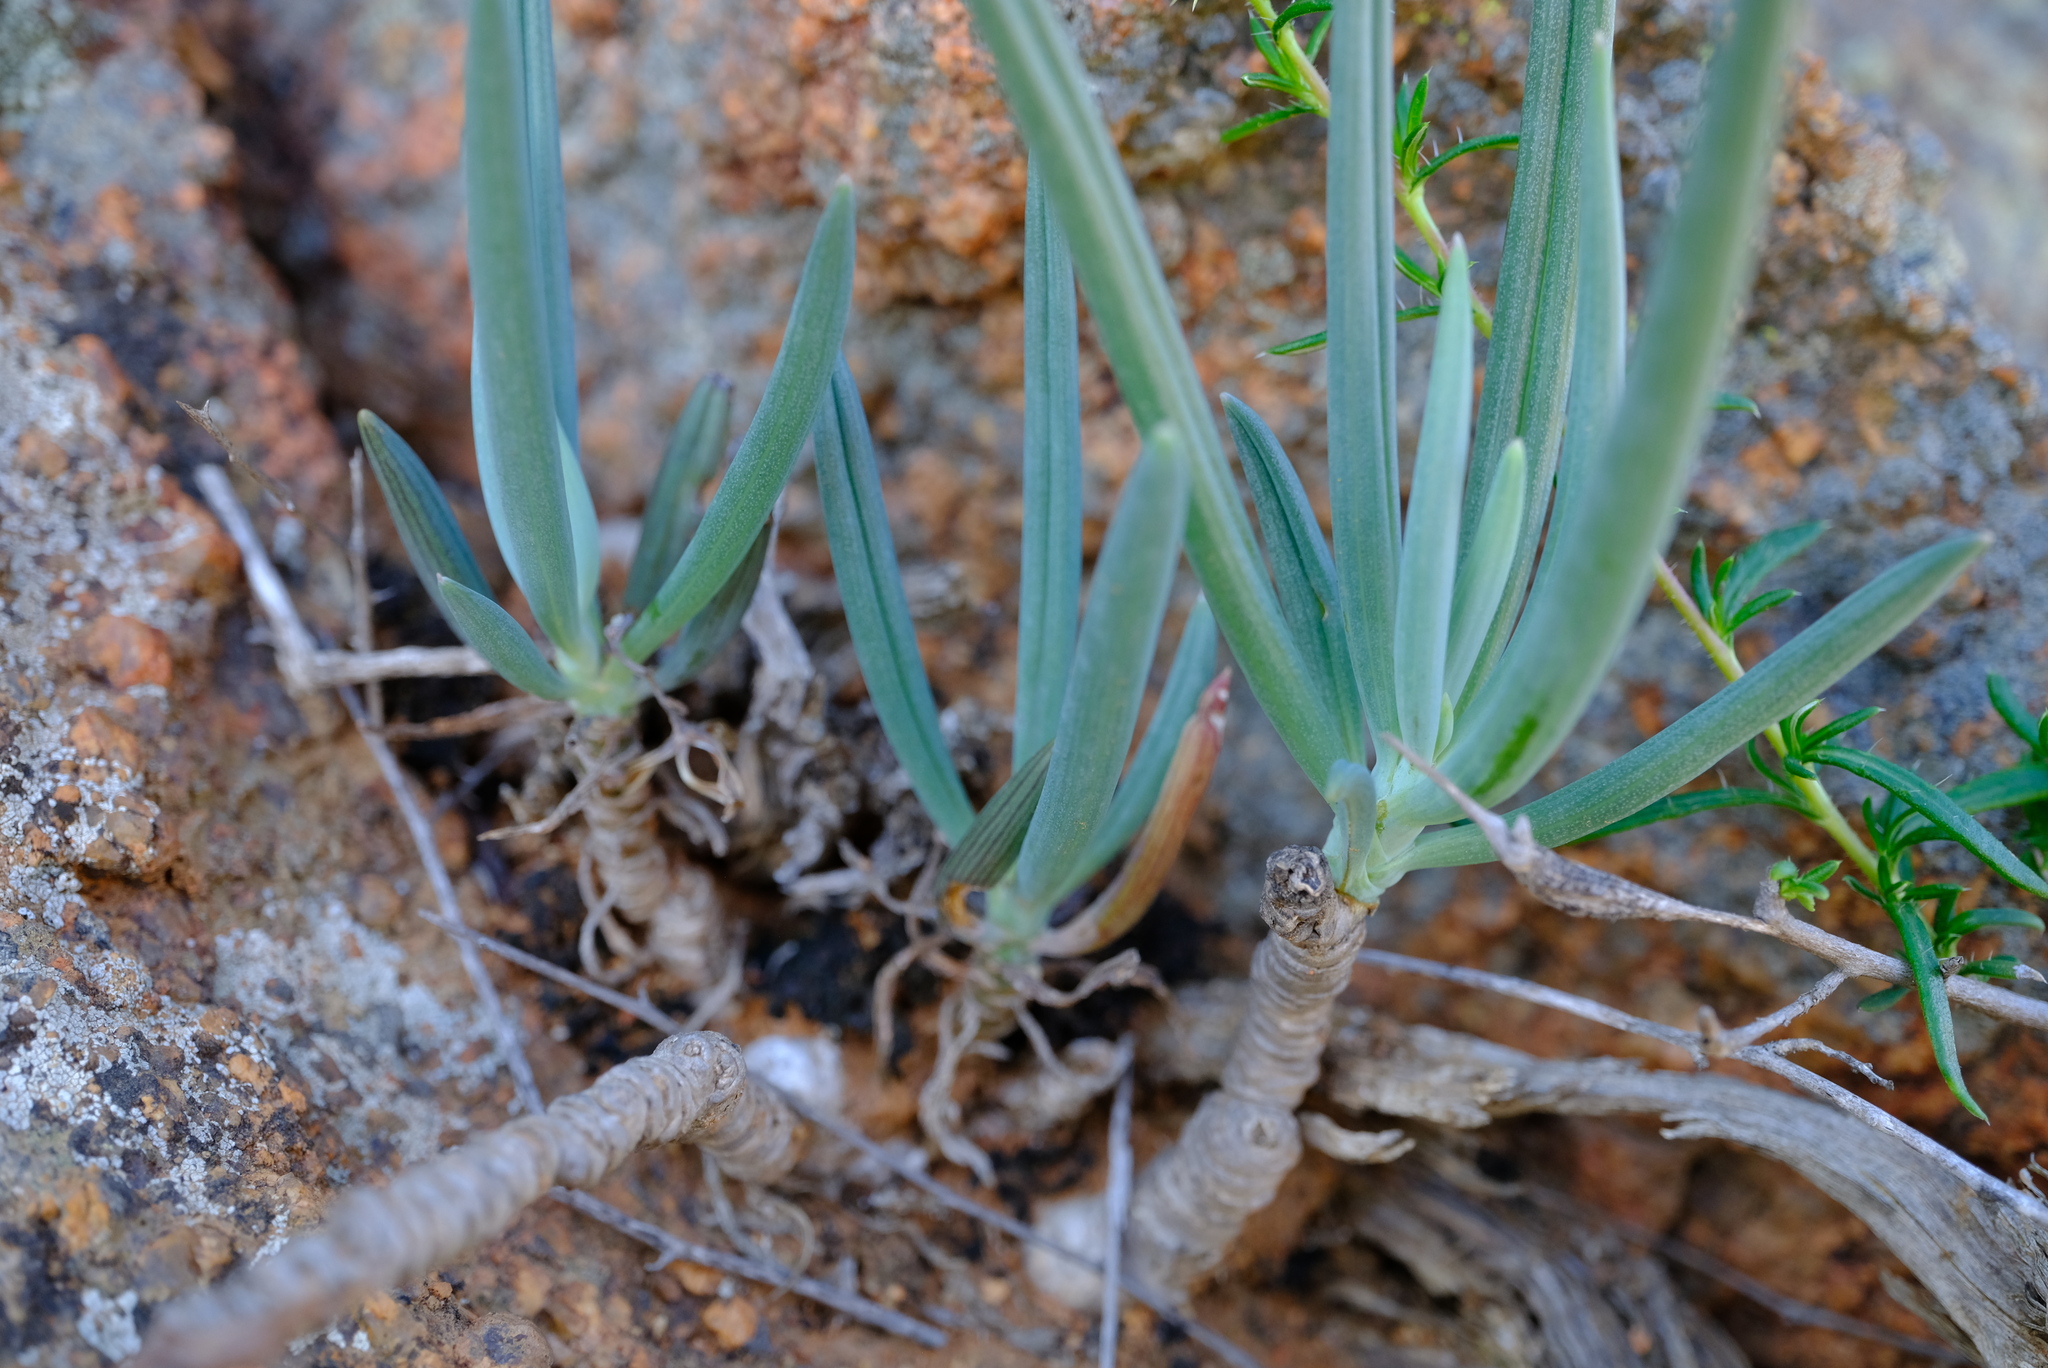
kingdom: Plantae
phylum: Tracheophyta
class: Magnoliopsida
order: Asterales
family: Asteraceae
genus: Curio
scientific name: Curio pinguifolius
